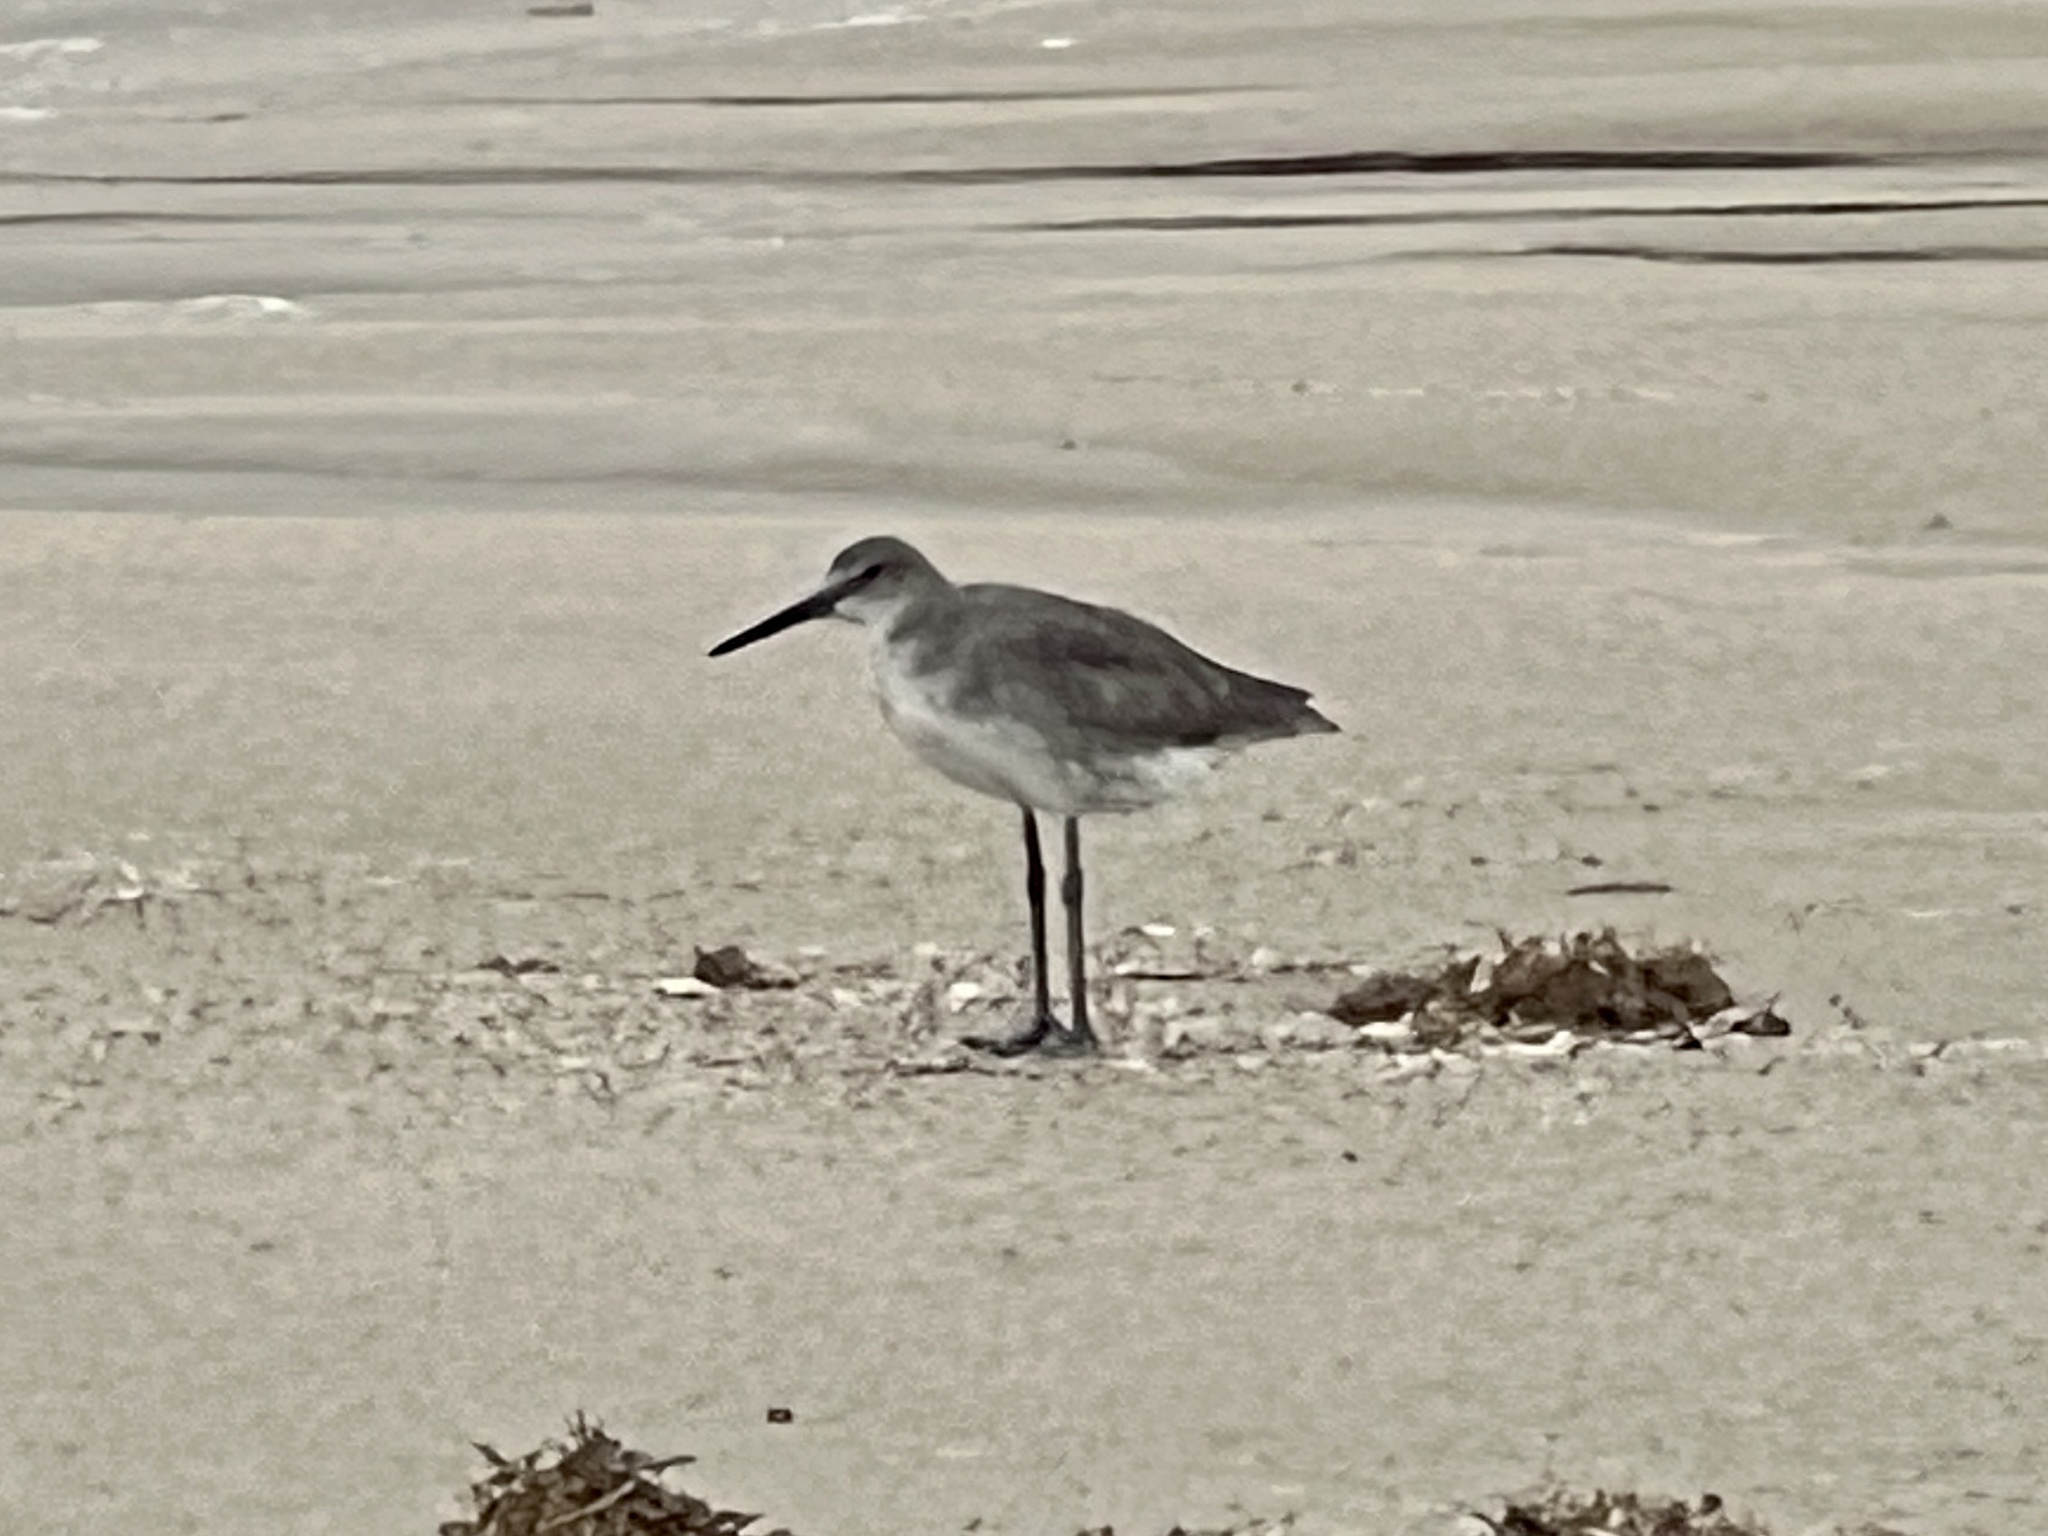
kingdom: Animalia
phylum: Chordata
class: Aves
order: Charadriiformes
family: Scolopacidae
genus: Tringa
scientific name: Tringa semipalmata
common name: Willet
